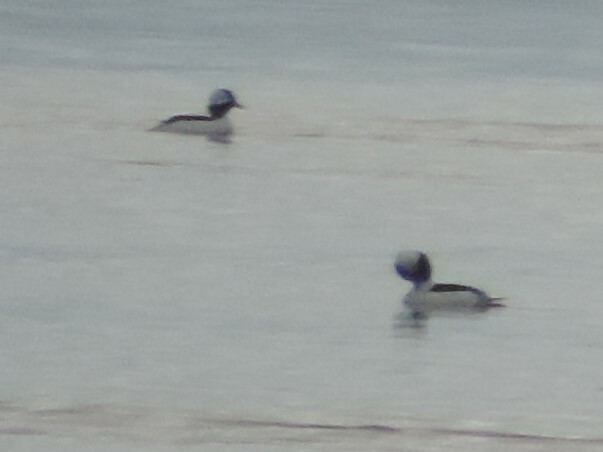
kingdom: Animalia
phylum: Chordata
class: Aves
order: Anseriformes
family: Anatidae
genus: Bucephala
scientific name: Bucephala albeola
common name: Bufflehead
